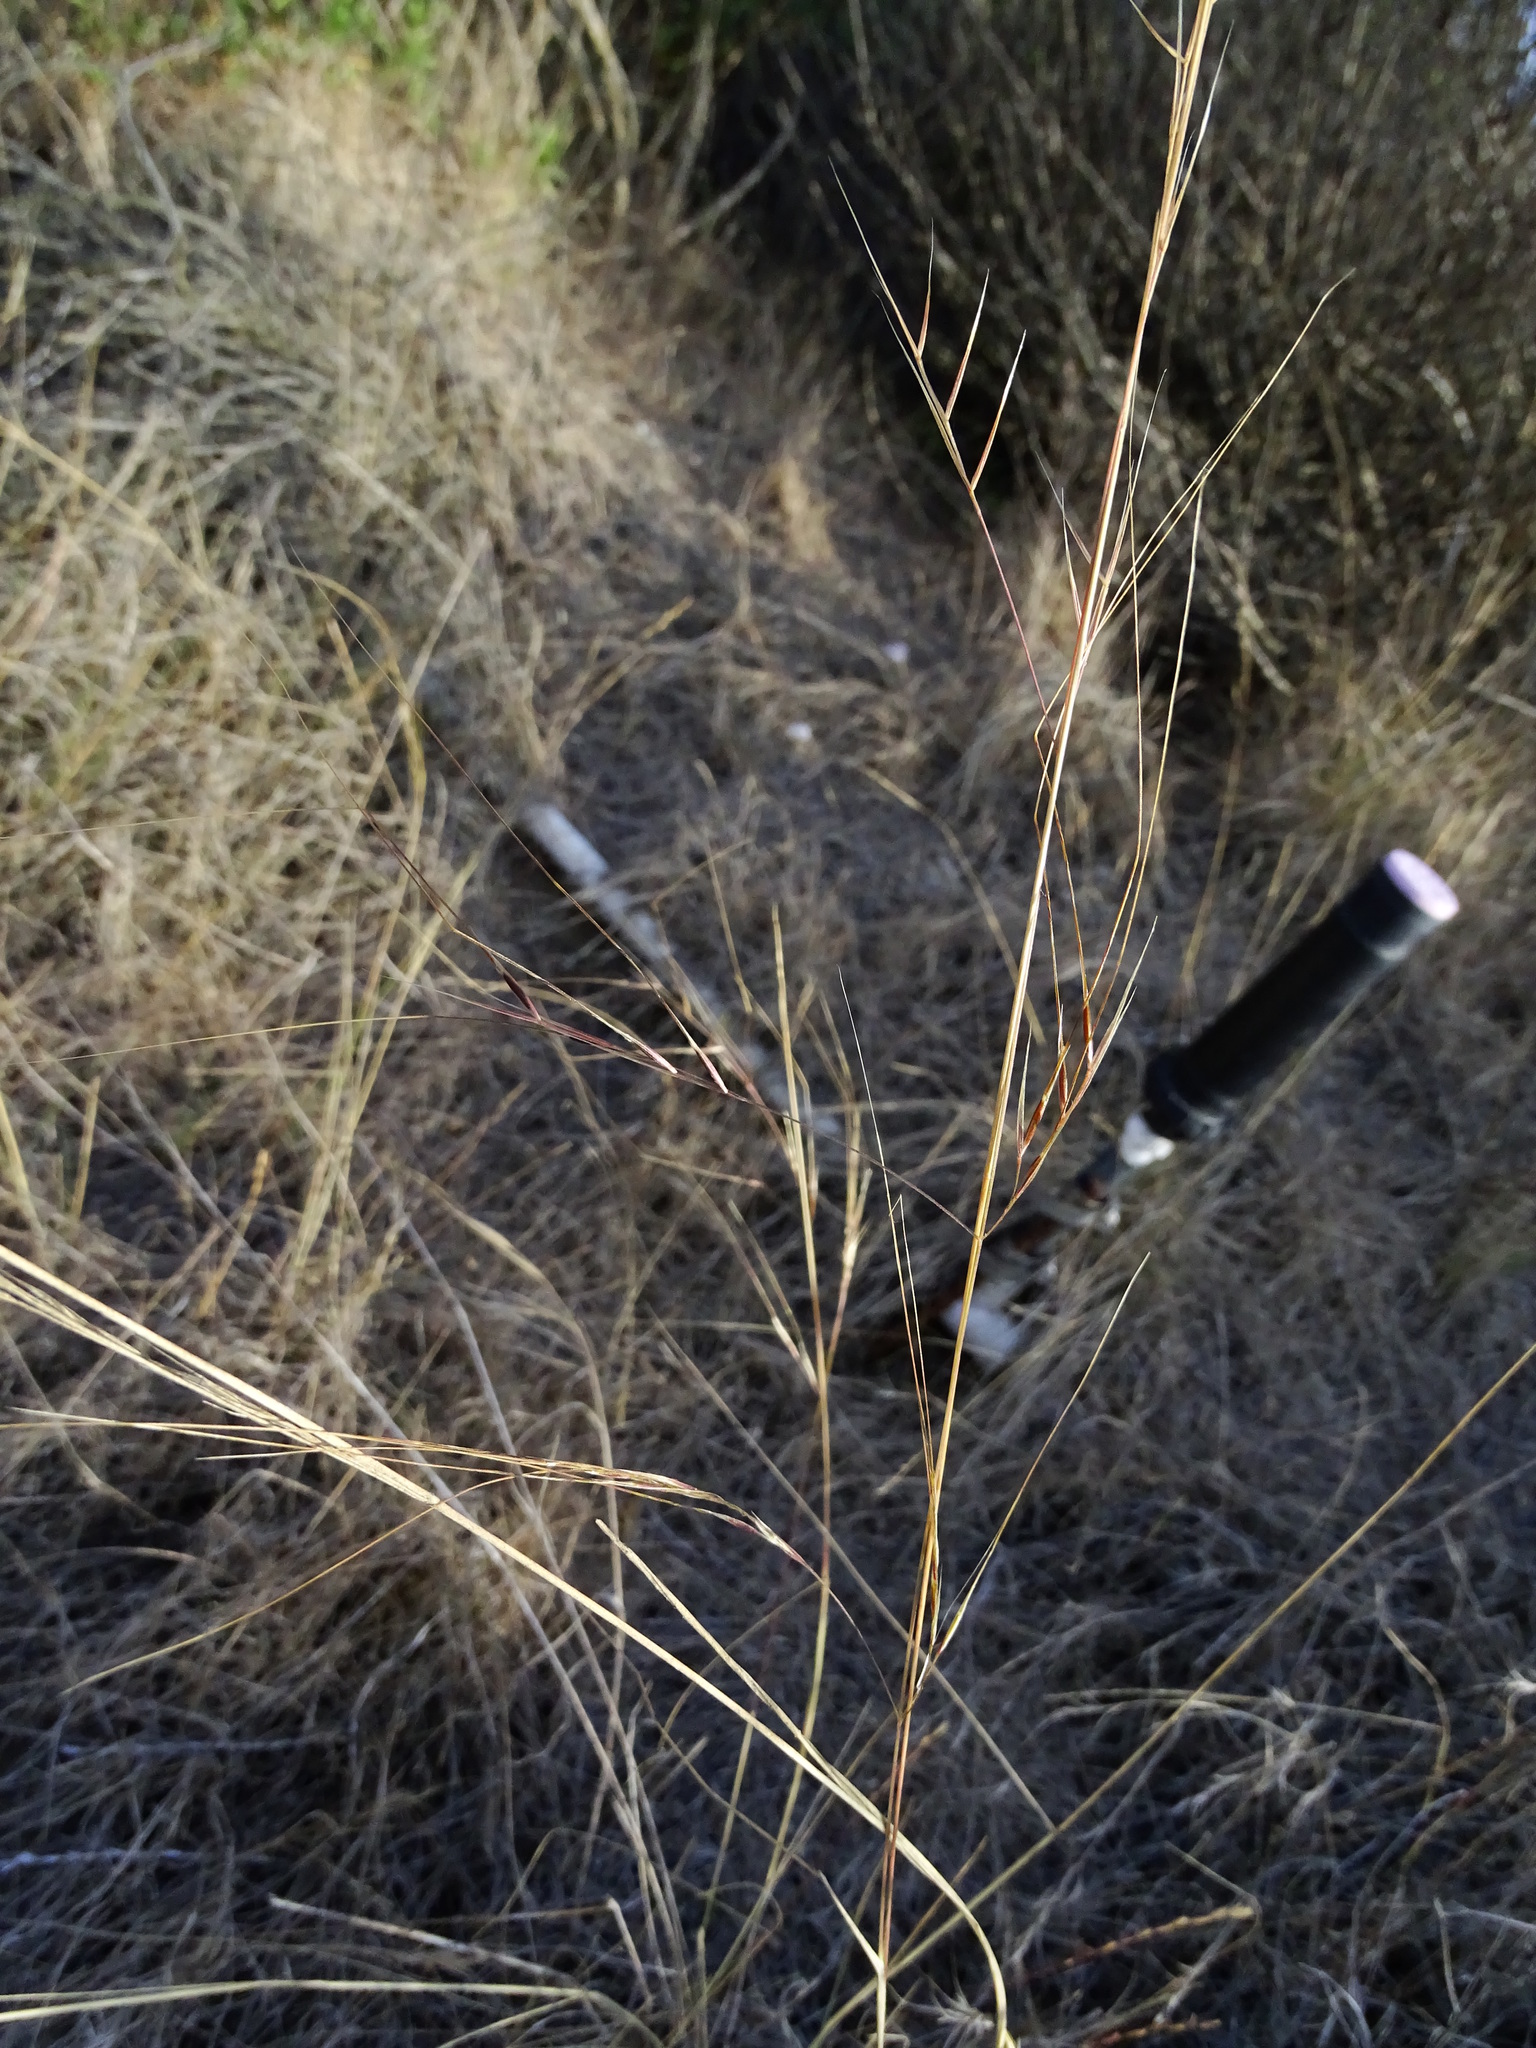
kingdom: Plantae
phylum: Tracheophyta
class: Liliopsida
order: Poales
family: Poaceae
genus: Nassella
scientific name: Nassella pulchra
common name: Purple needlegrass
